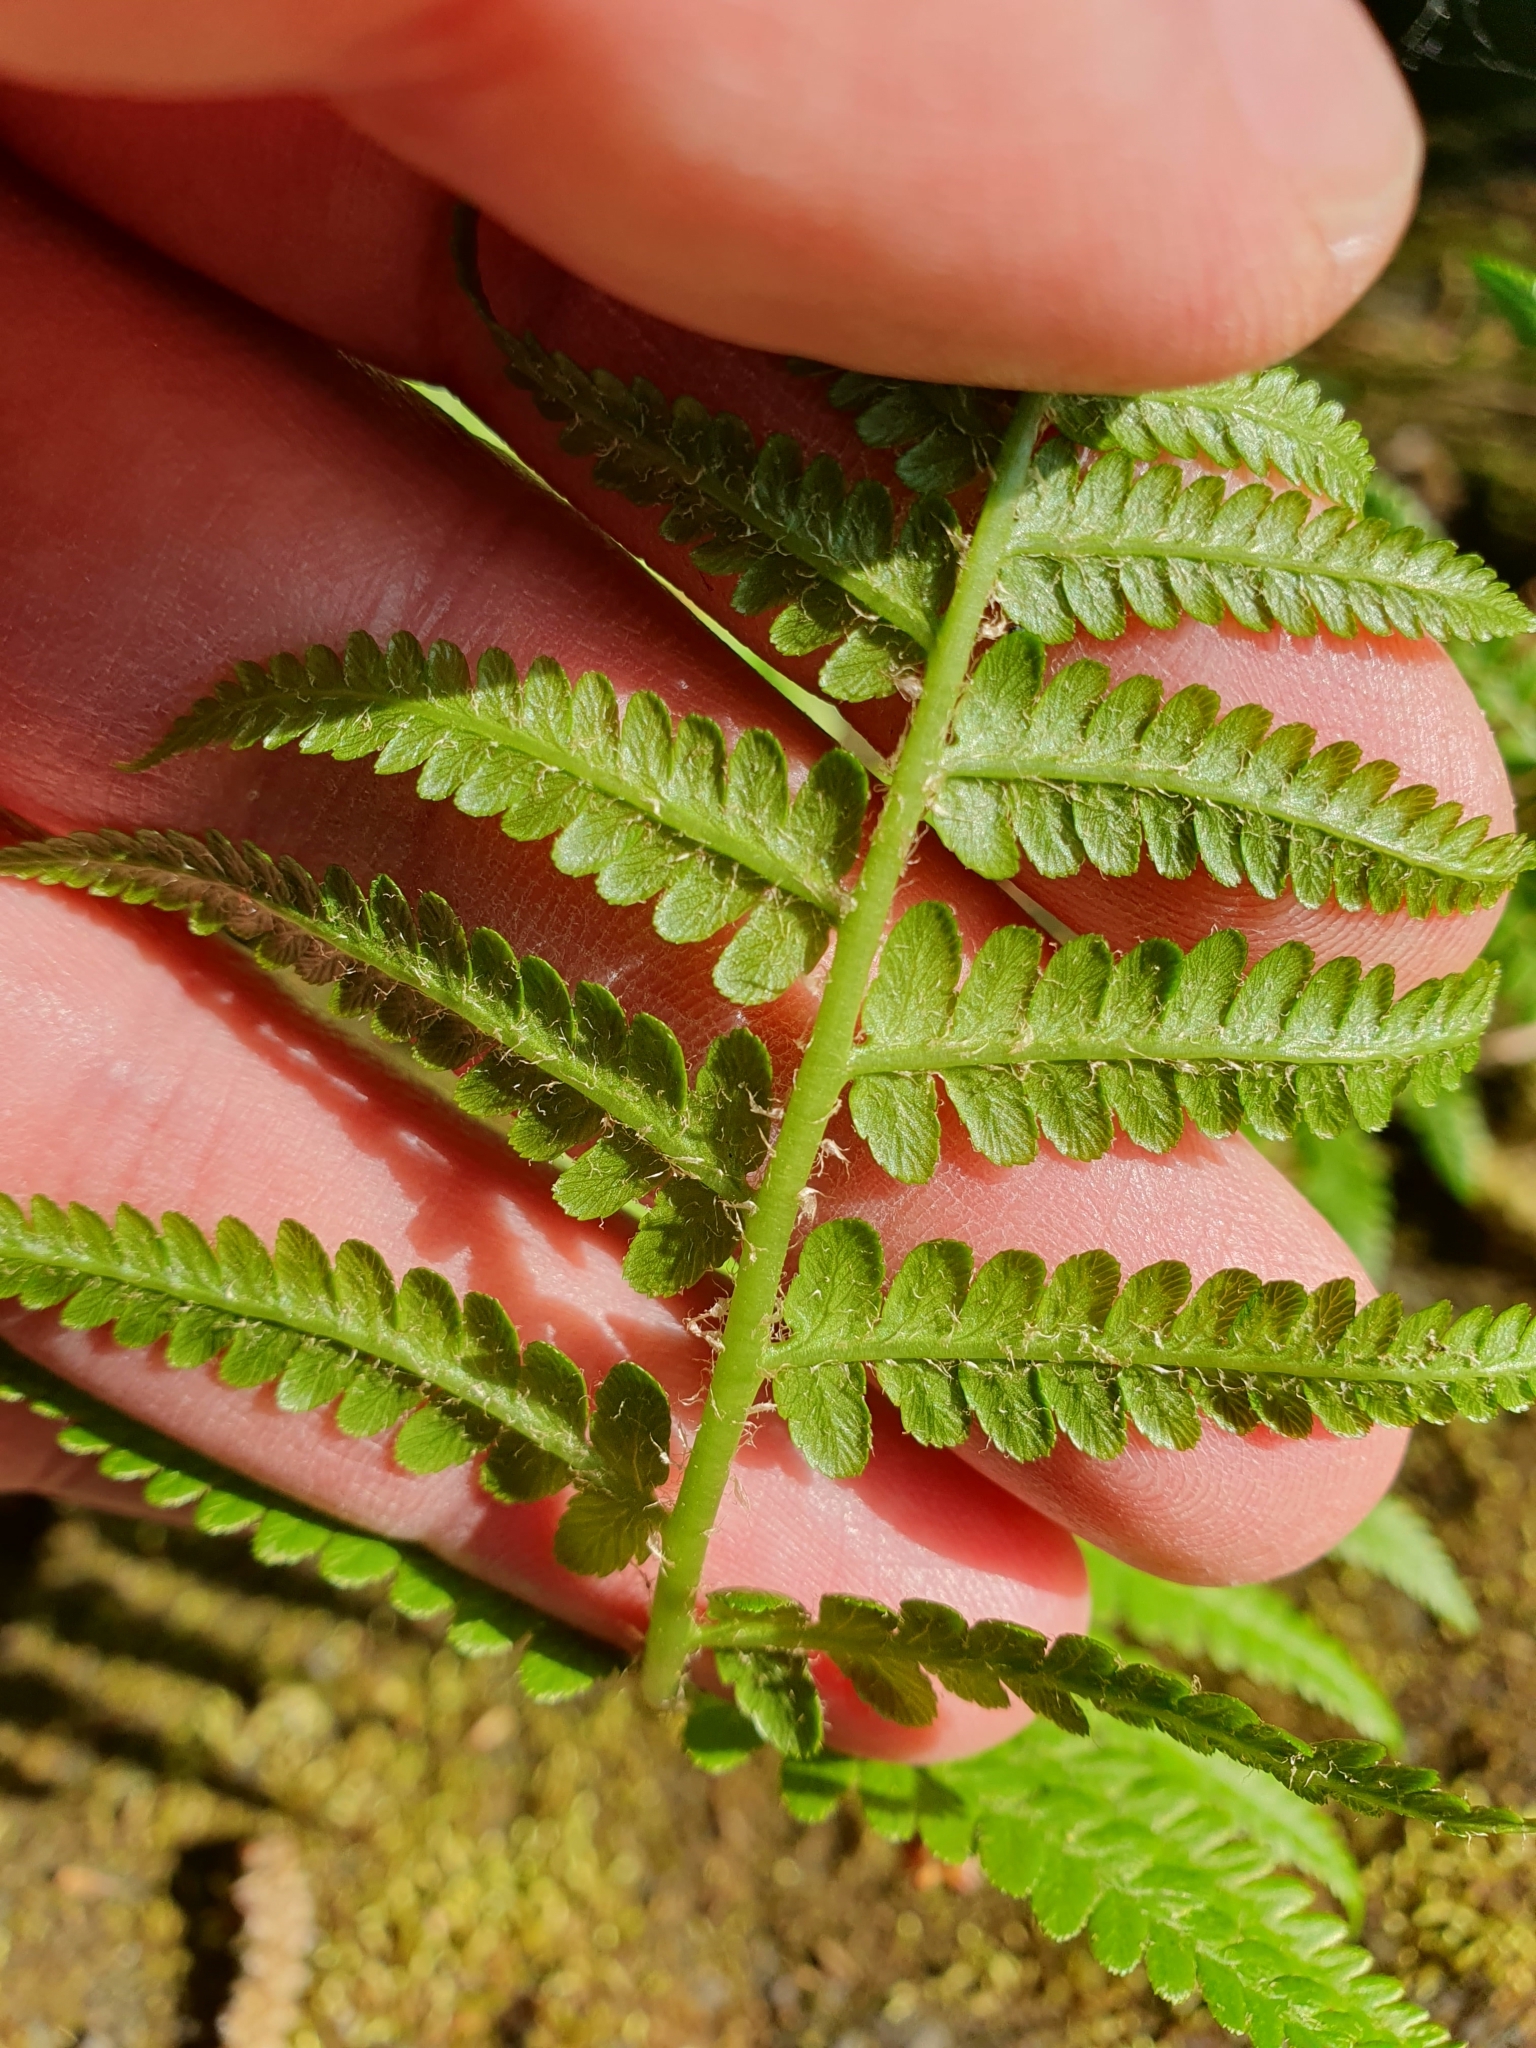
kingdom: Plantae
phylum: Tracheophyta
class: Polypodiopsida
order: Polypodiales
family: Dryopteridaceae
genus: Dryopteris
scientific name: Dryopteris filix-mas
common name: Male fern
